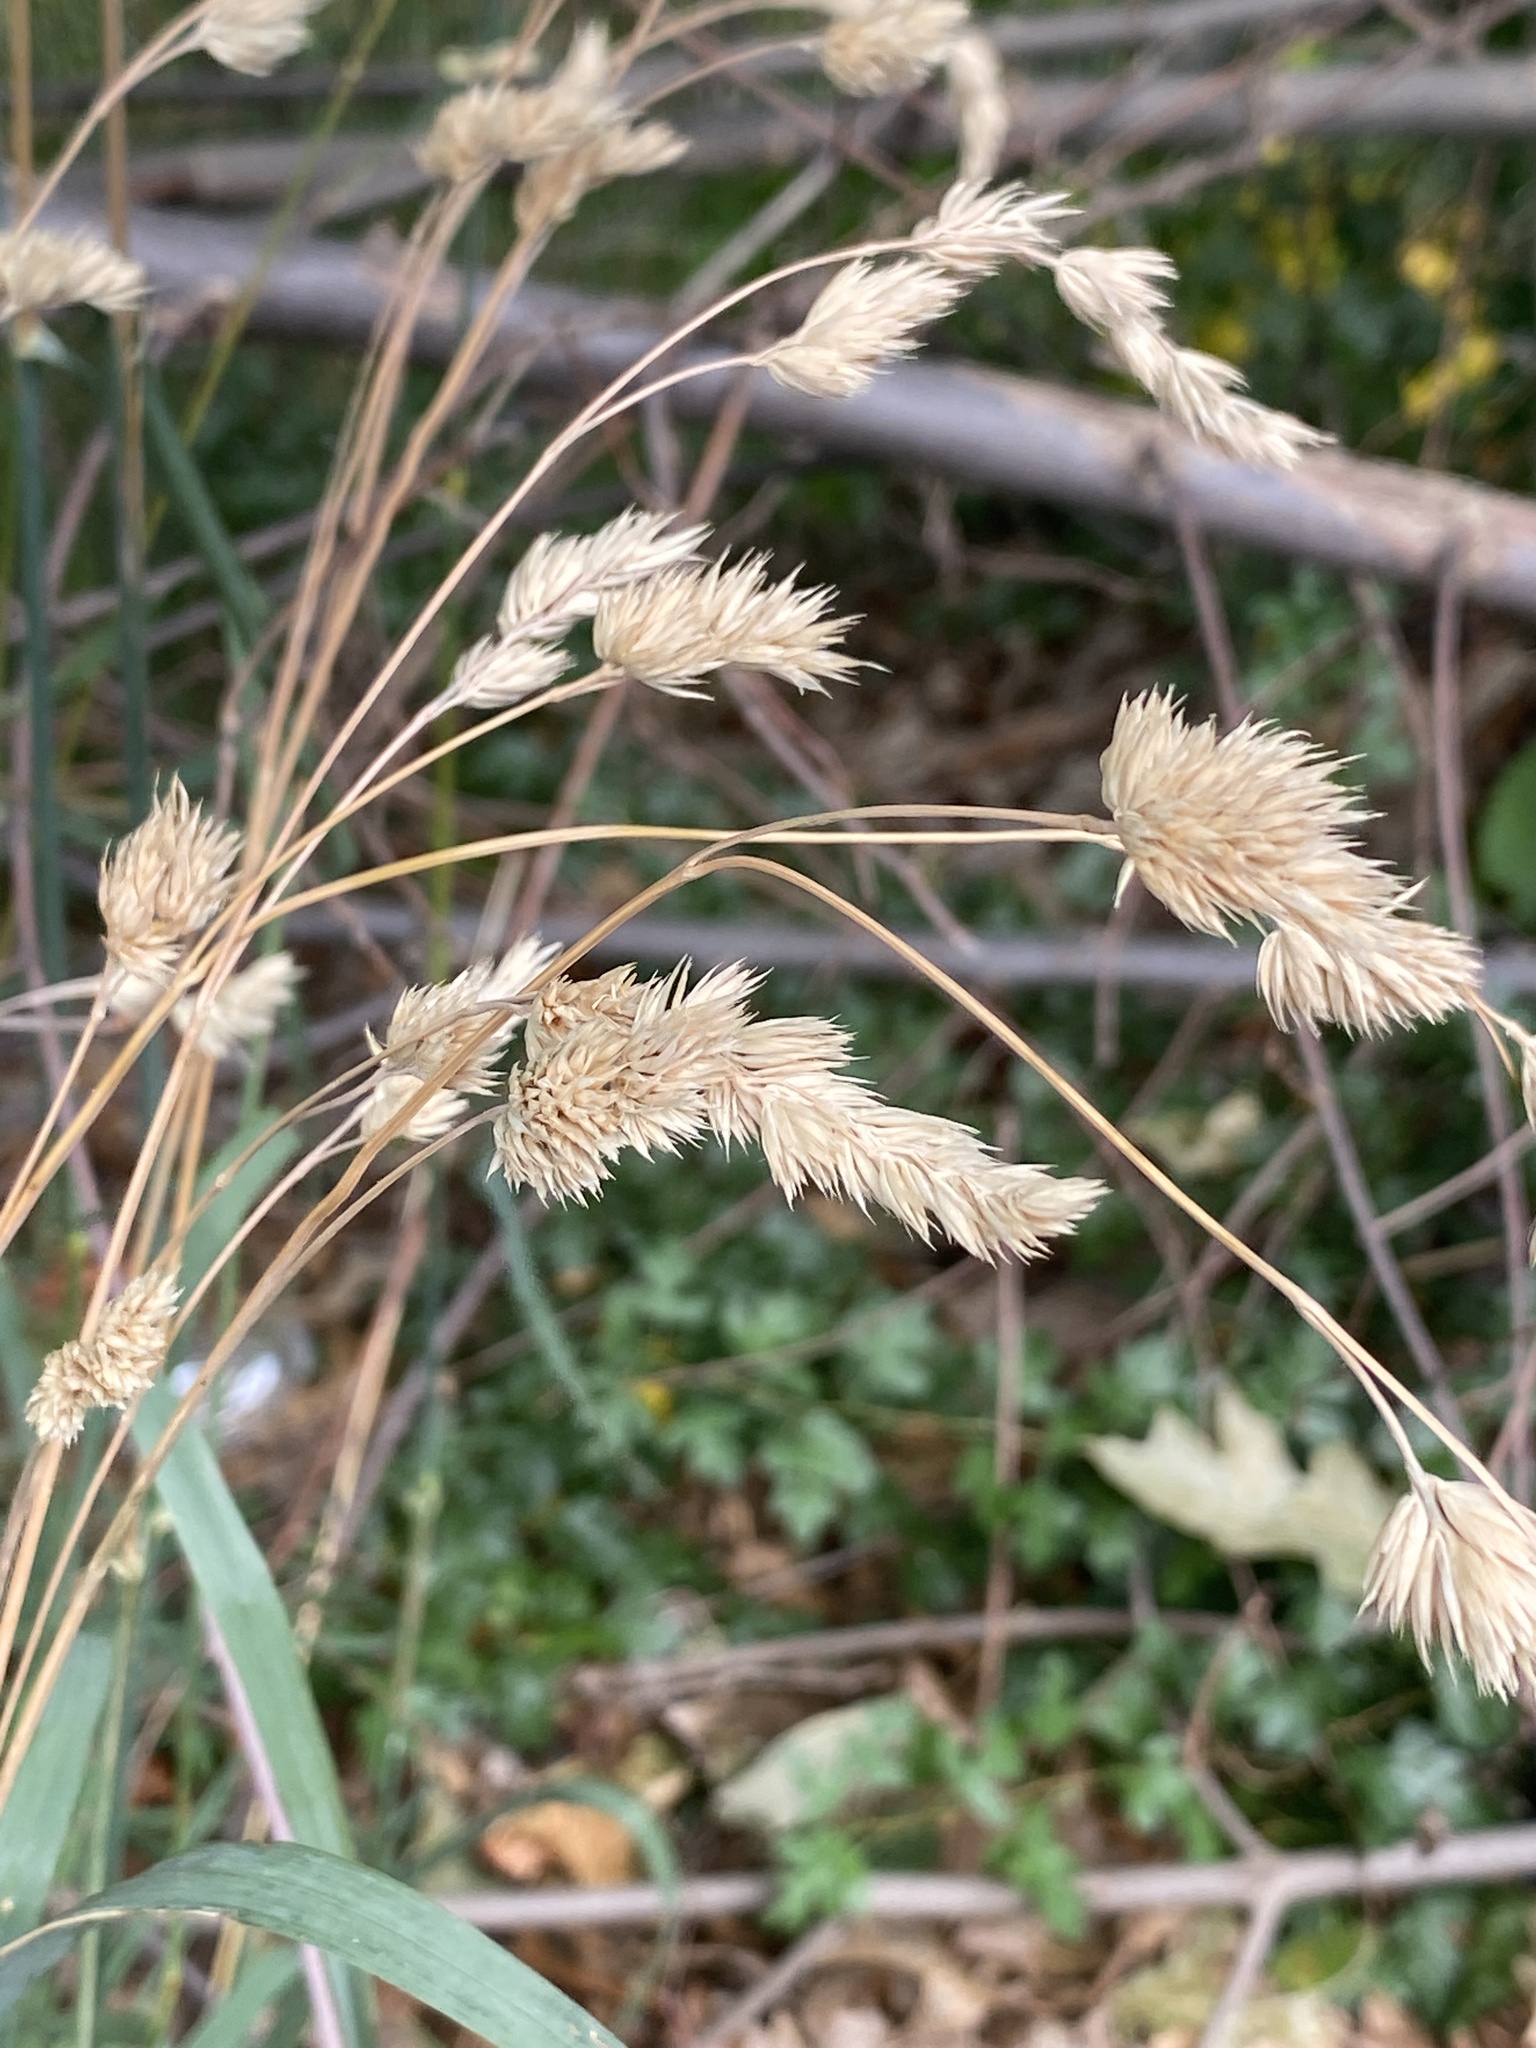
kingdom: Plantae
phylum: Tracheophyta
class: Liliopsida
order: Poales
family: Poaceae
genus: Dactylis
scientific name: Dactylis glomerata
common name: Orchardgrass
